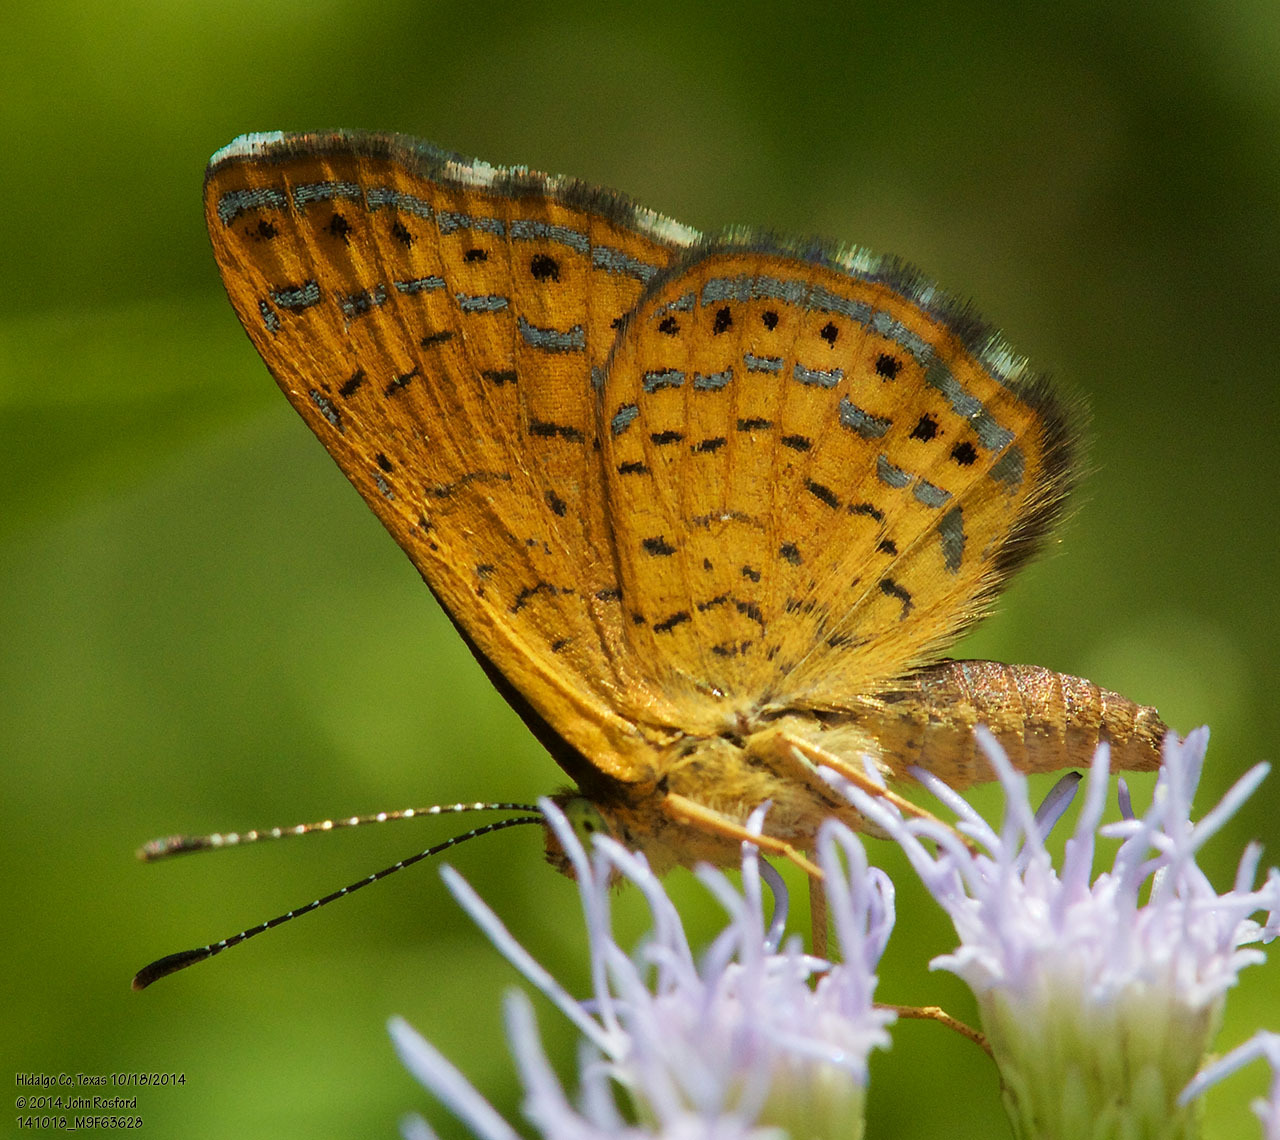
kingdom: Animalia
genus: Calephelis
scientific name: Calephelis nemesis
